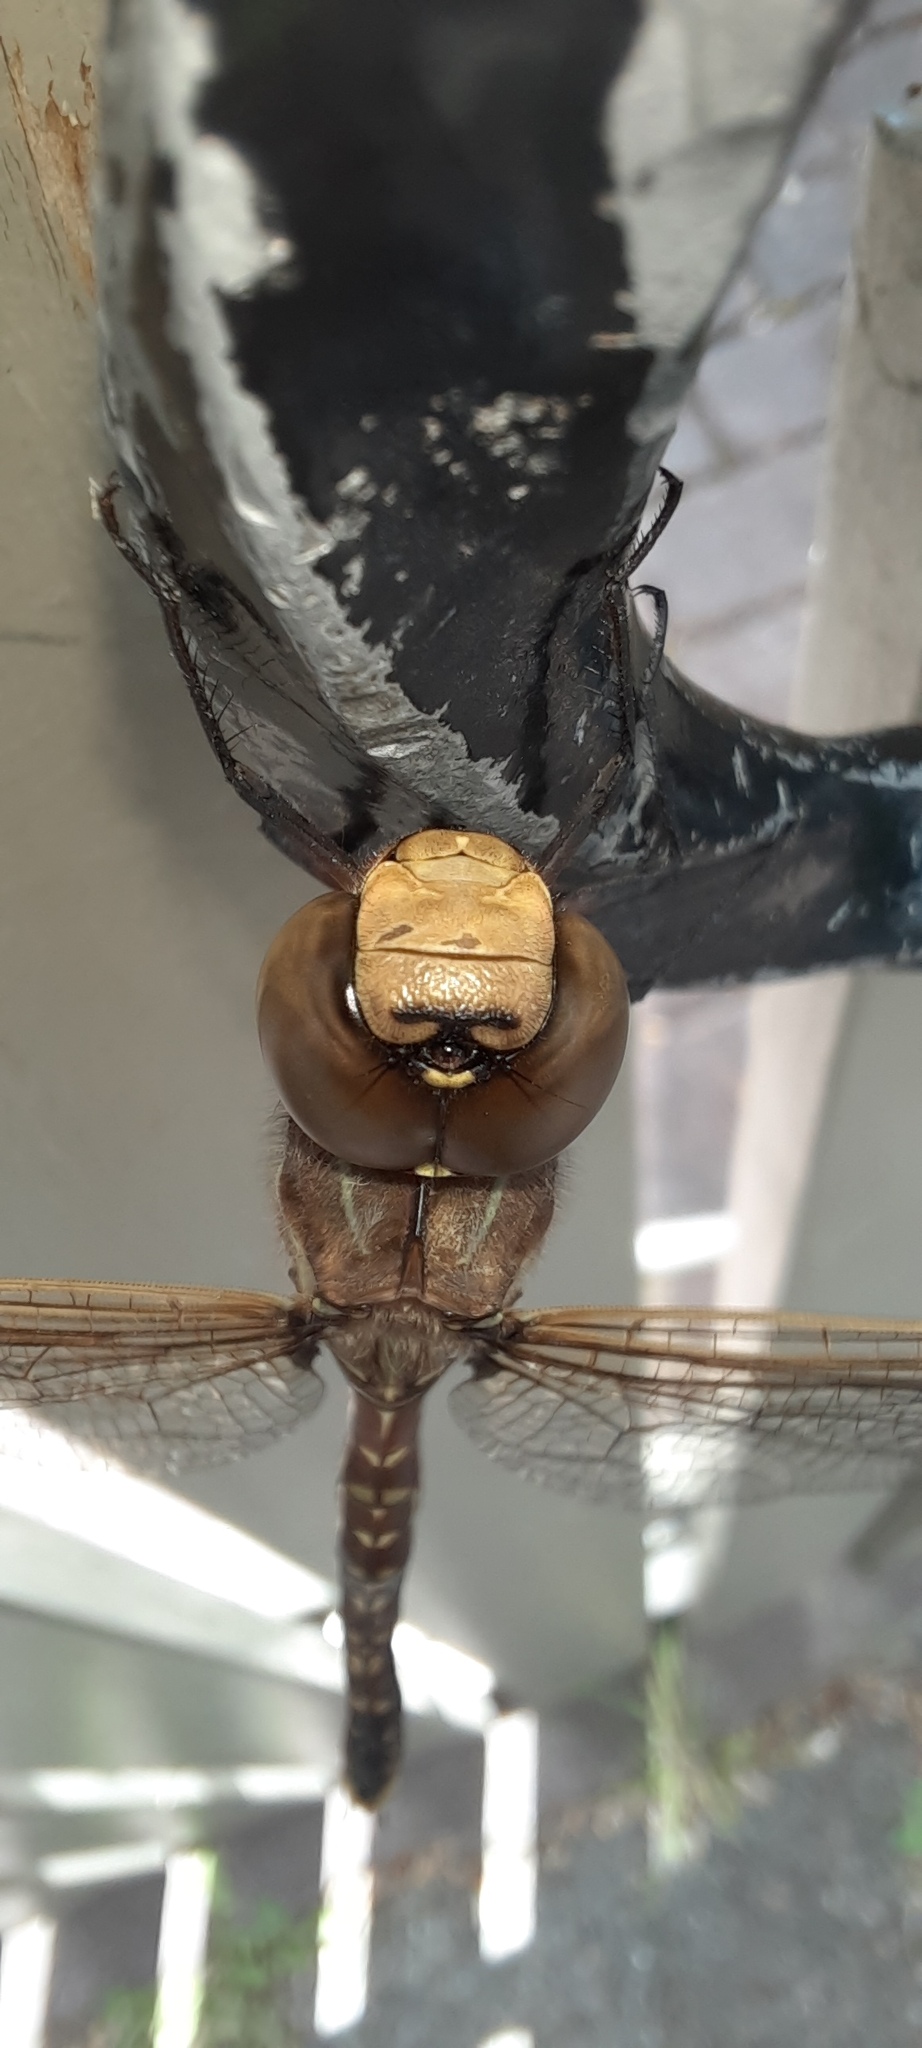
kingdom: Animalia
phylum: Arthropoda
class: Insecta
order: Odonata
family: Aeshnidae
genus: Aeshna
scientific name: Aeshna brevistyla
